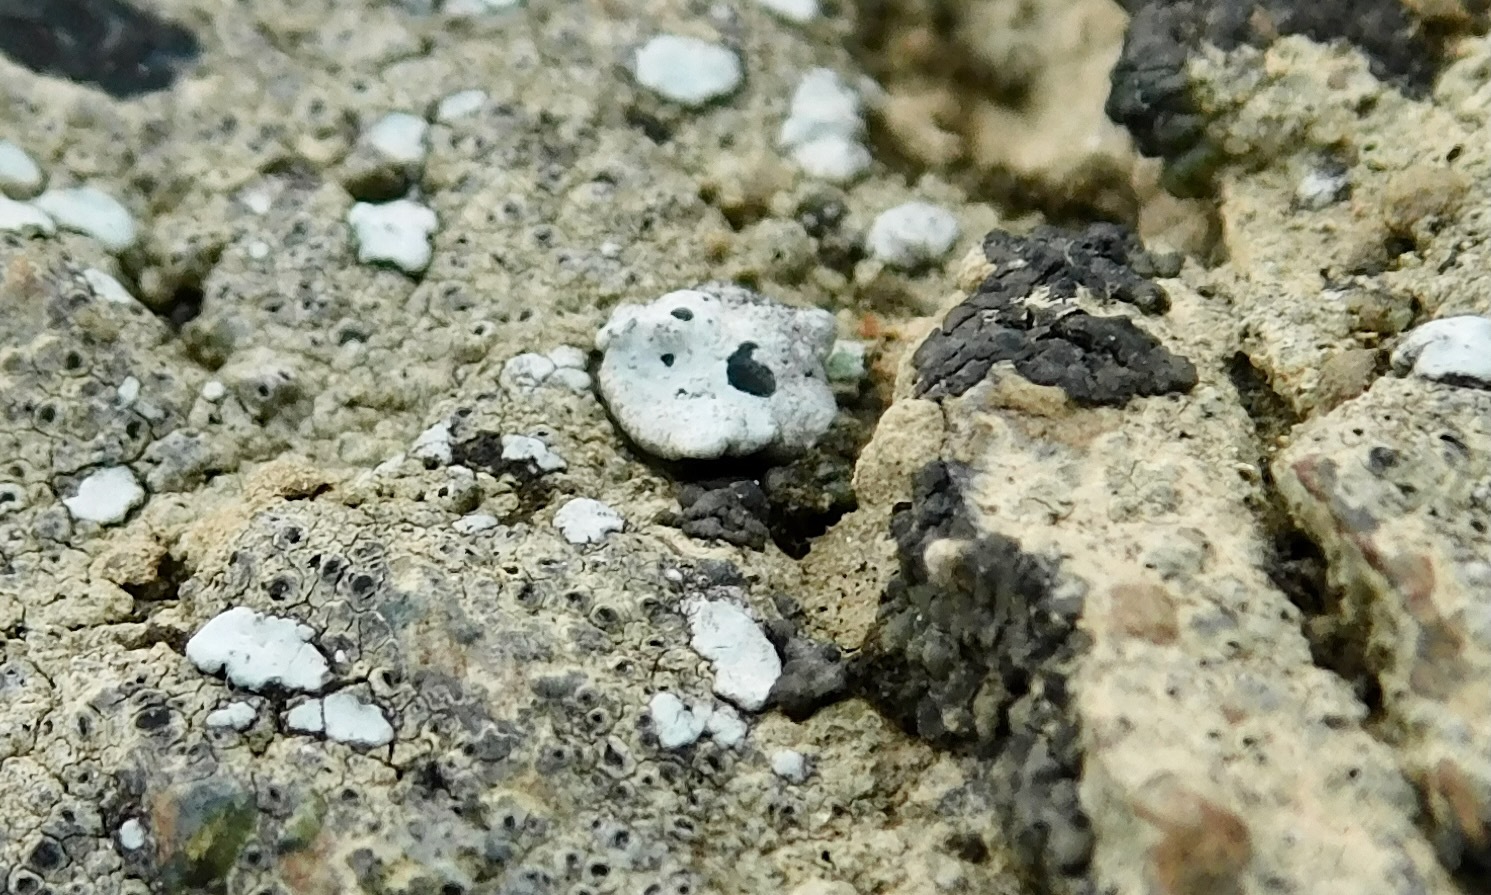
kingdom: Fungi
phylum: Ascomycota
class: Lecanoromycetes
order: Caliciales
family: Caliciaceae
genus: Dermiscellum
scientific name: Dermiscellum oulocheilum
